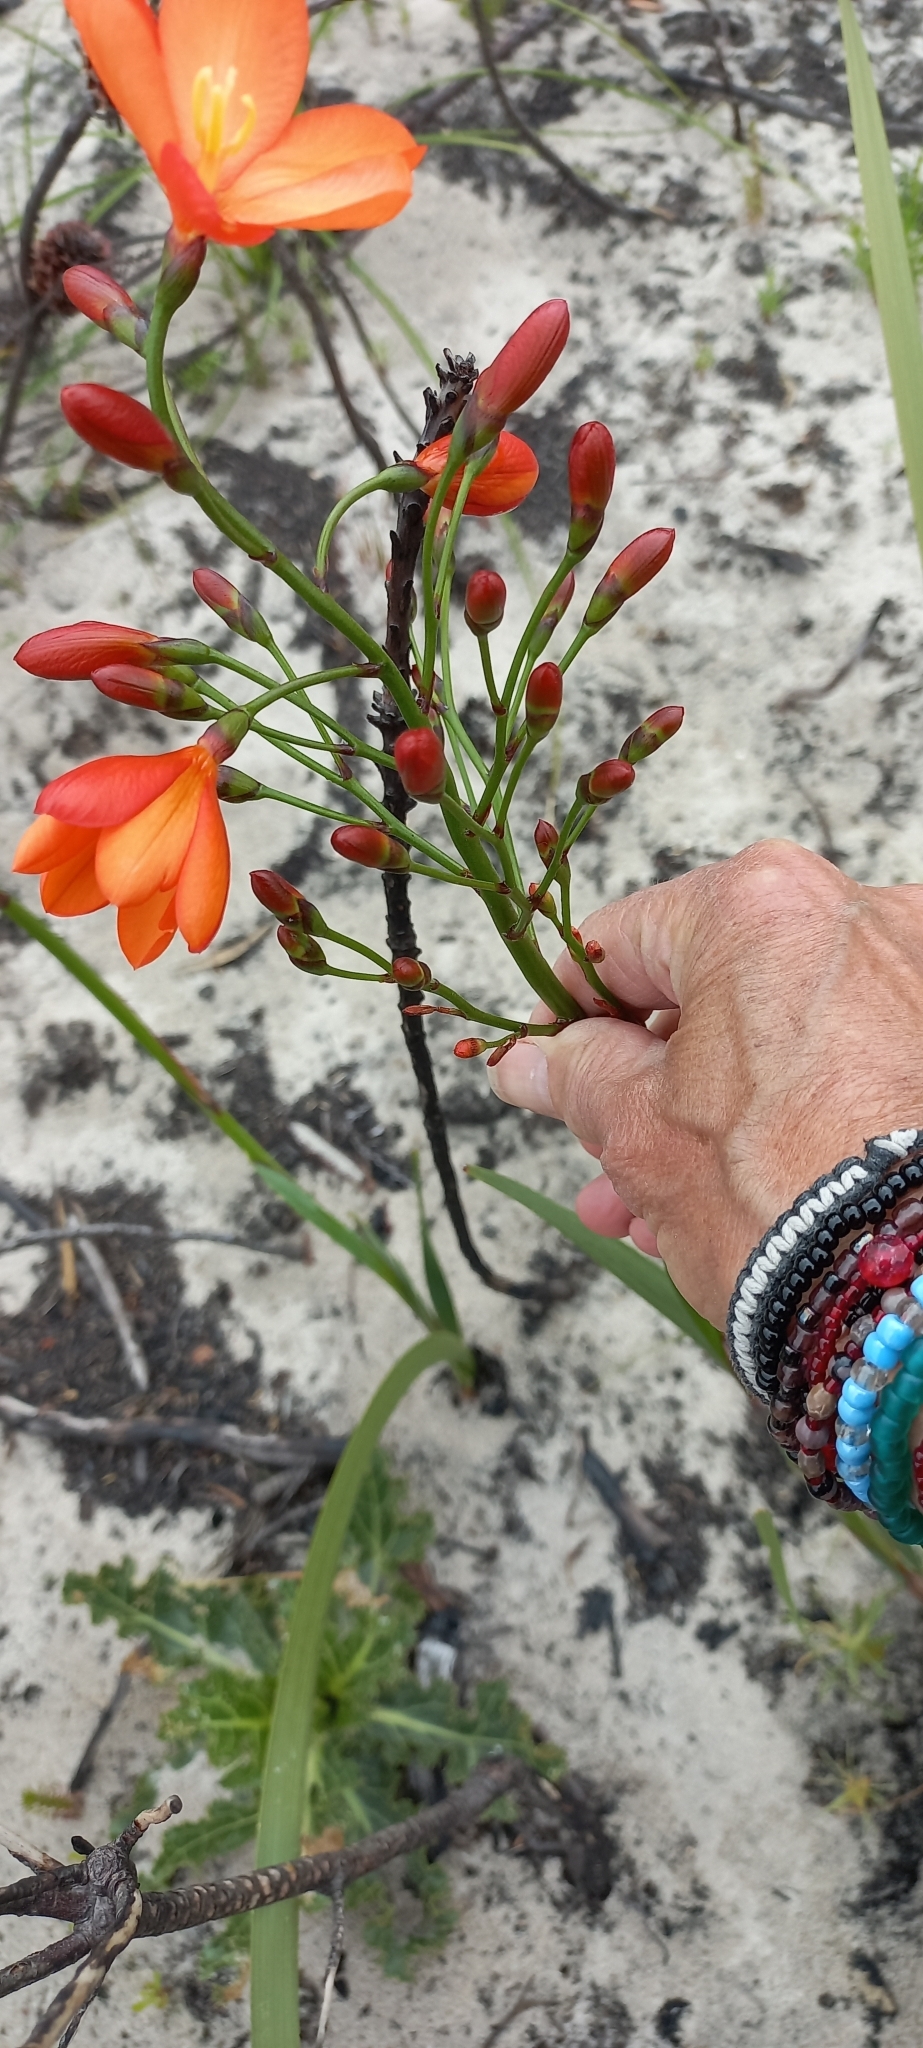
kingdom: Plantae
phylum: Tracheophyta
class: Liliopsida
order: Asparagales
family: Iridaceae
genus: Pillansia
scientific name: Pillansia templemannii
